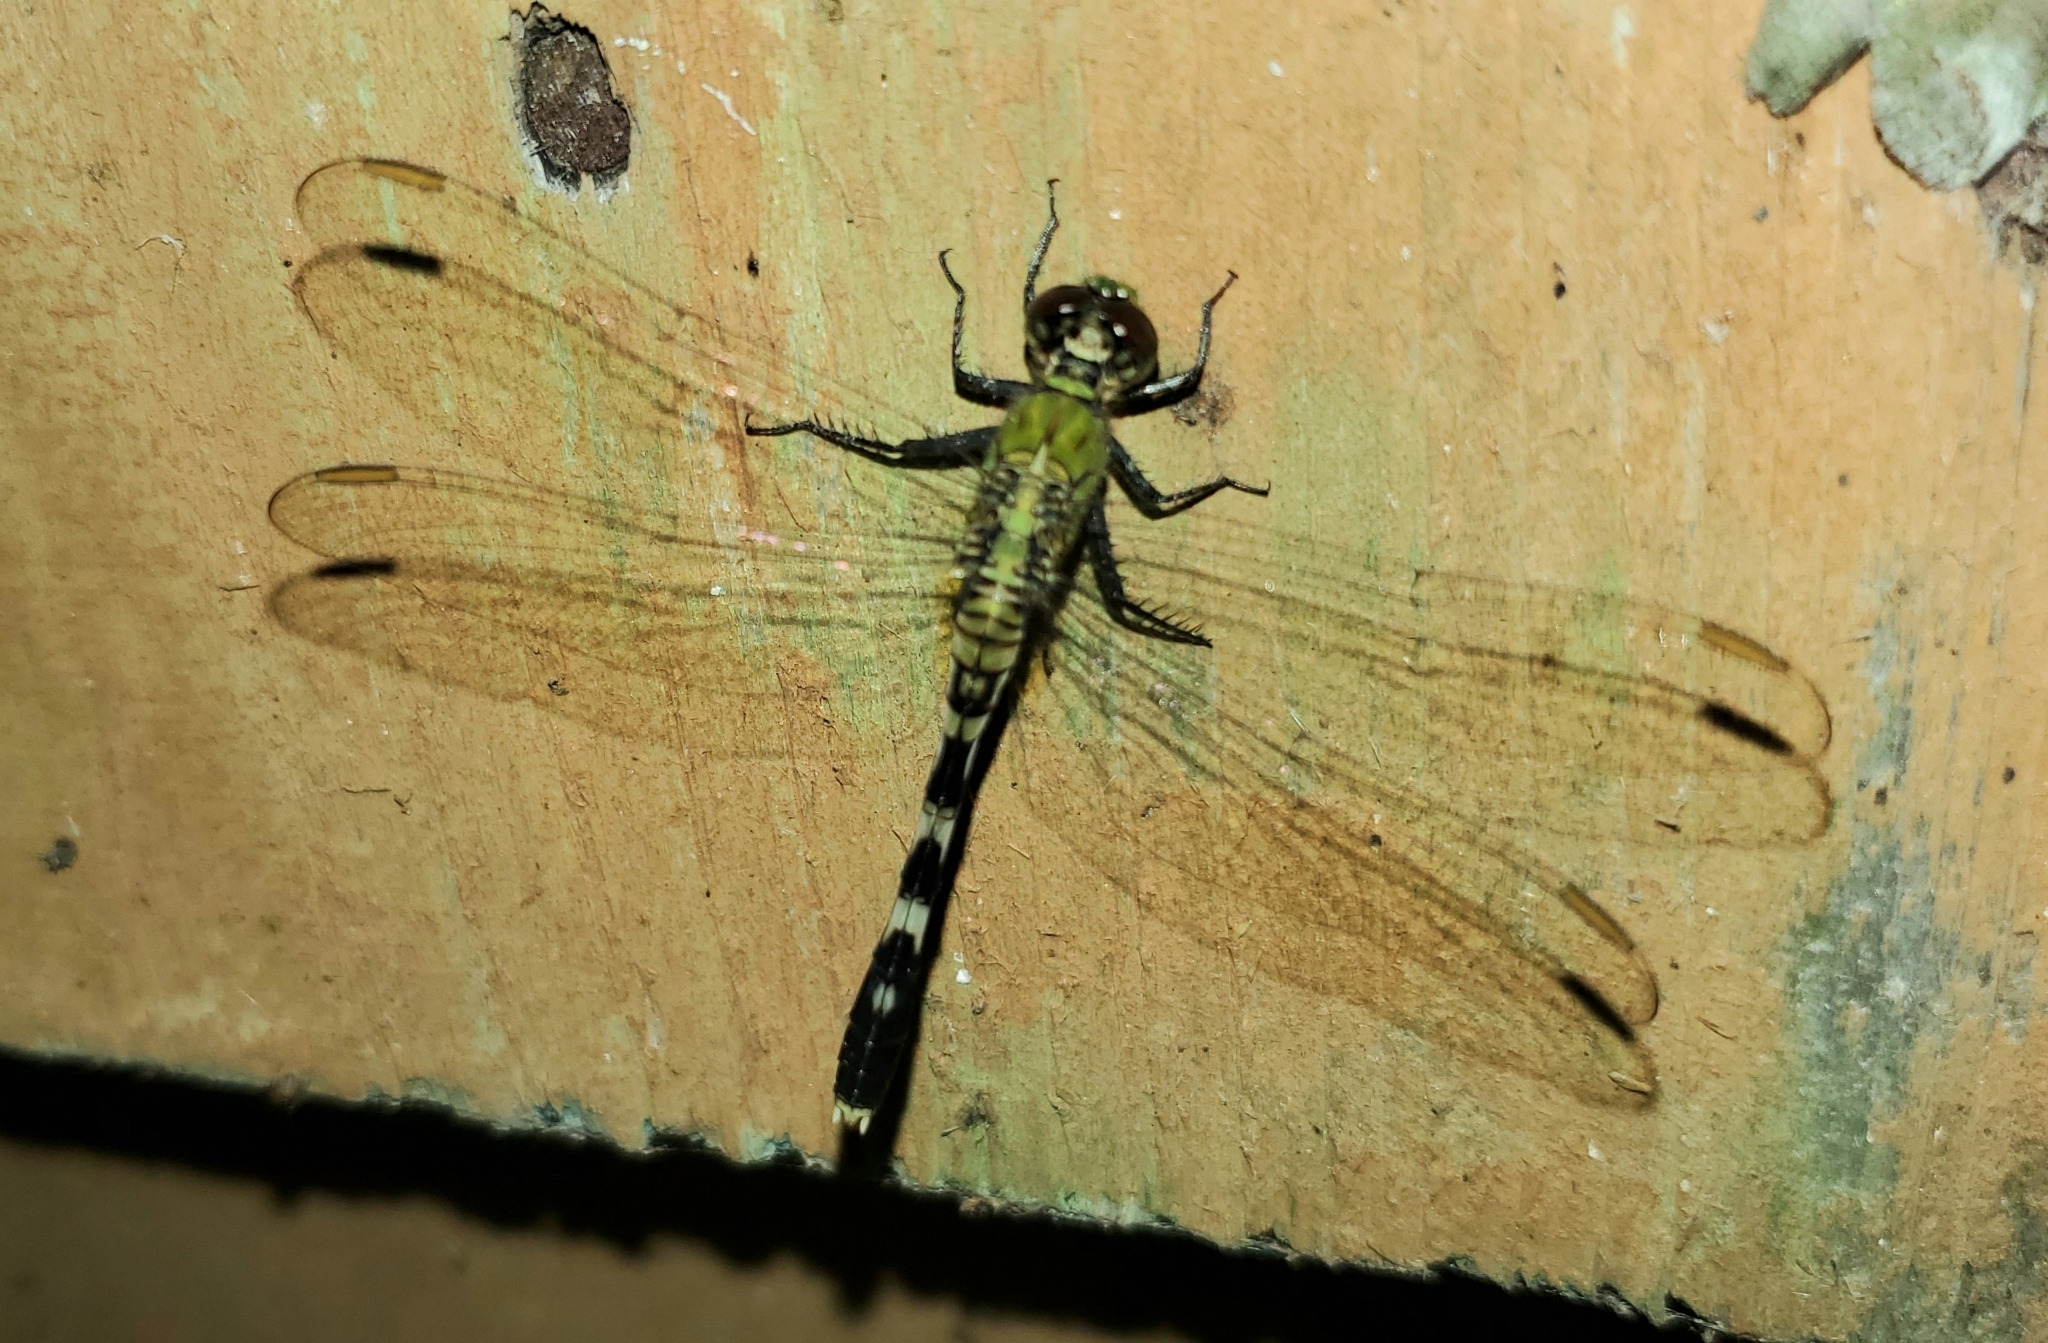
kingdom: Animalia
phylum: Arthropoda
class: Insecta
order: Odonata
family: Libellulidae
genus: Erythemis
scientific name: Erythemis simplicicollis
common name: Eastern pondhawk
